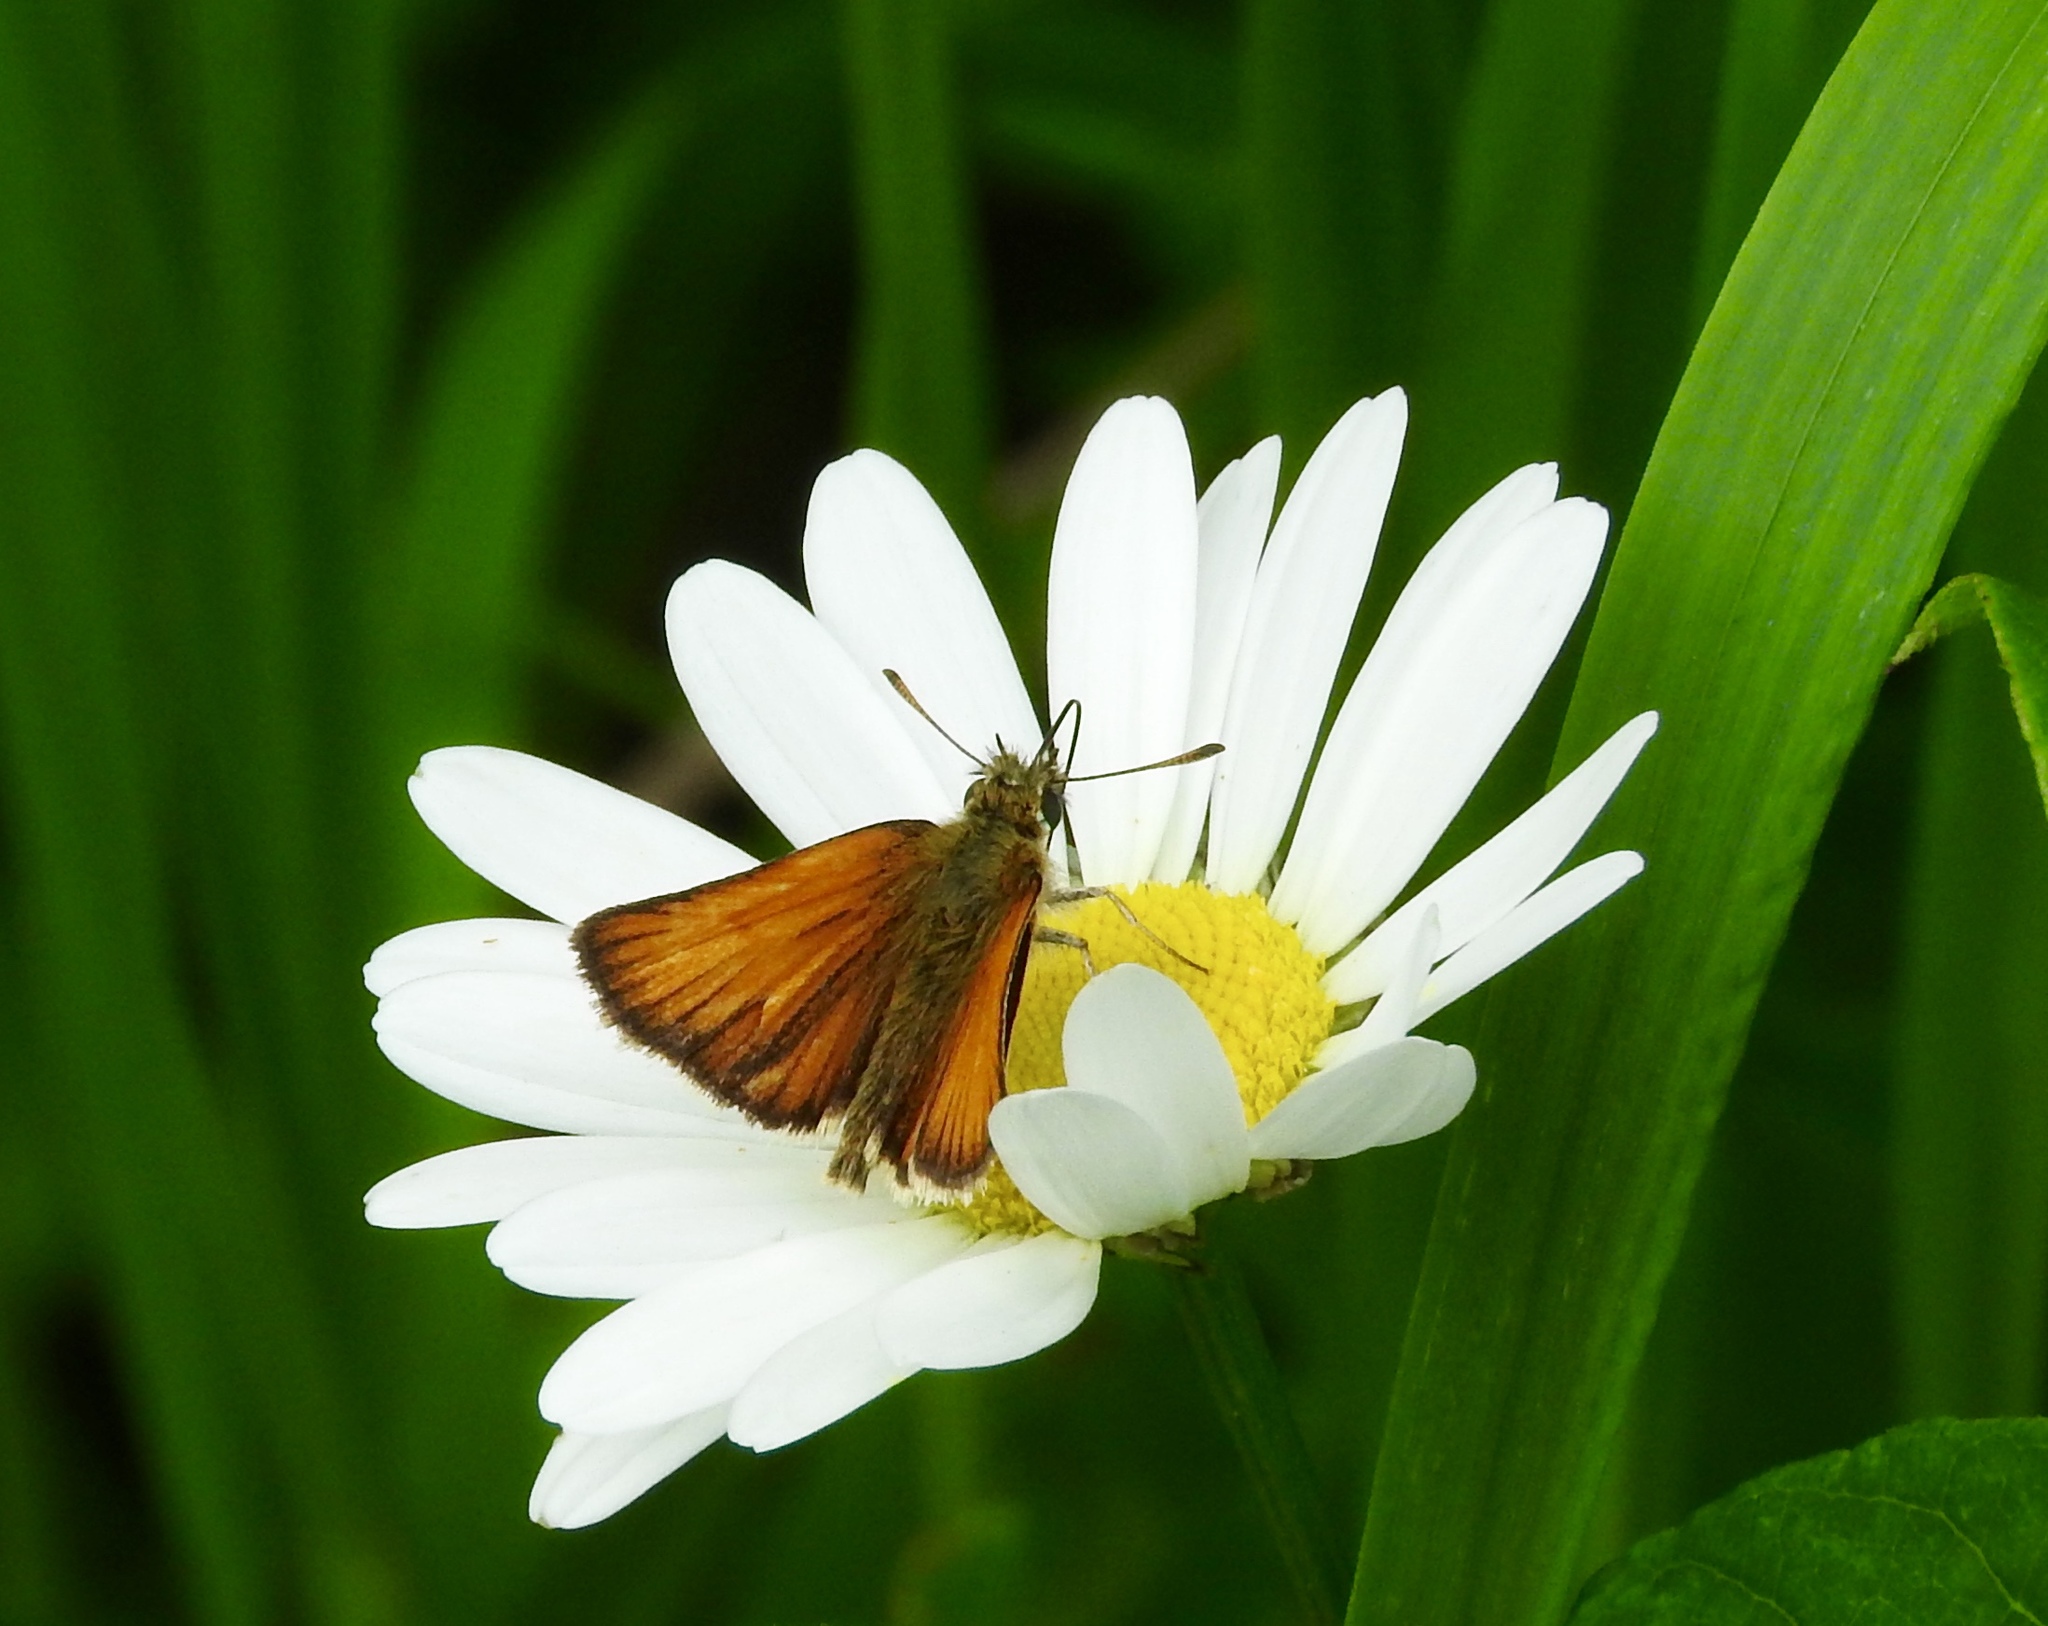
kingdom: Animalia
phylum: Arthropoda
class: Insecta
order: Lepidoptera
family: Hesperiidae
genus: Thymelicus
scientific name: Thymelicus lineola
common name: Essex skipper
